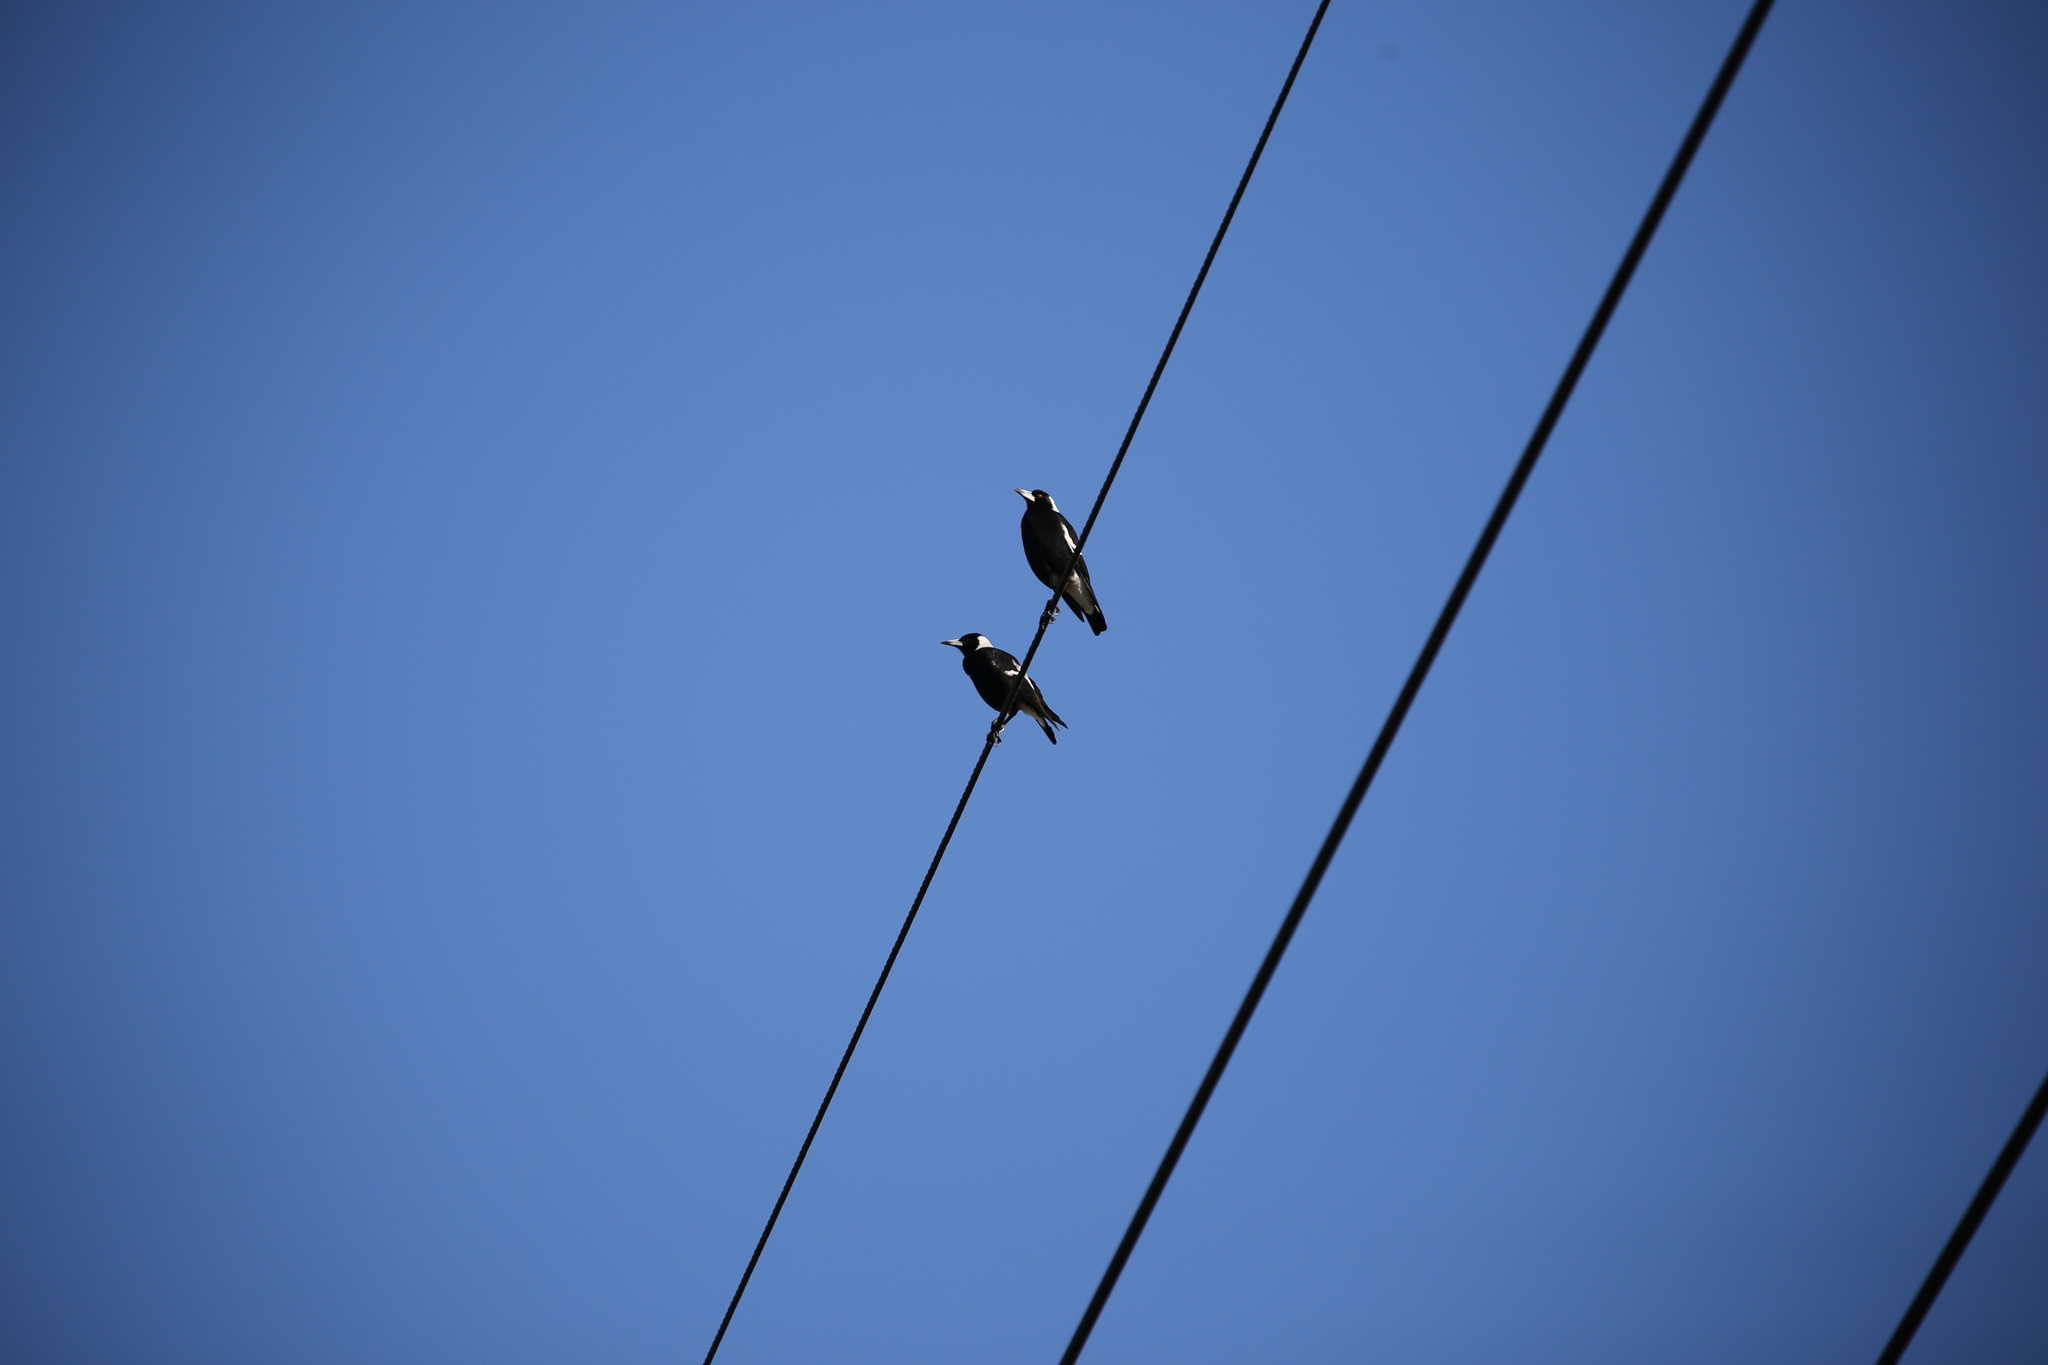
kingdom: Animalia
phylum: Chordata
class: Aves
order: Passeriformes
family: Cracticidae
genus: Gymnorhina
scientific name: Gymnorhina tibicen
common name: Australian magpie
